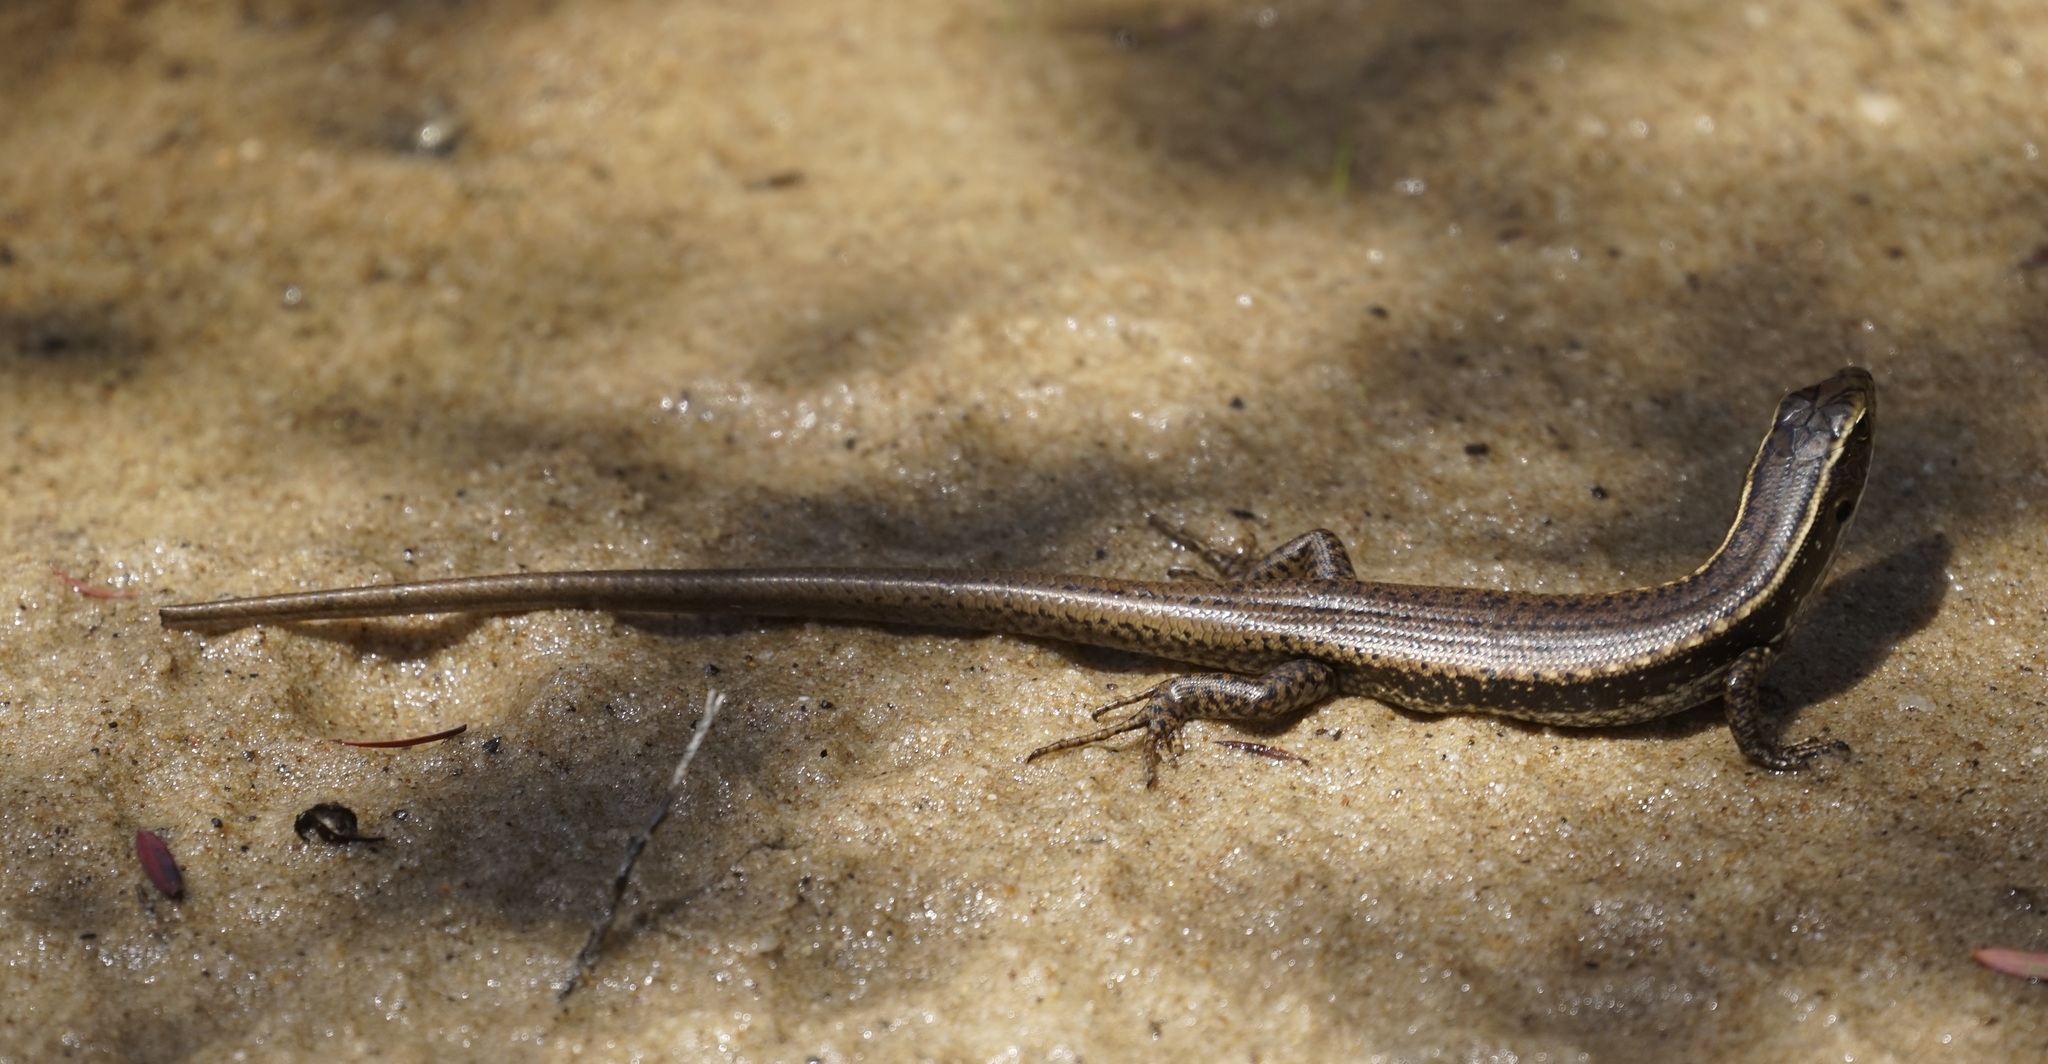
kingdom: Animalia
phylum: Chordata
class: Squamata
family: Scincidae
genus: Eulamprus
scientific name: Eulamprus quoyii
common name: Eastern water skink
